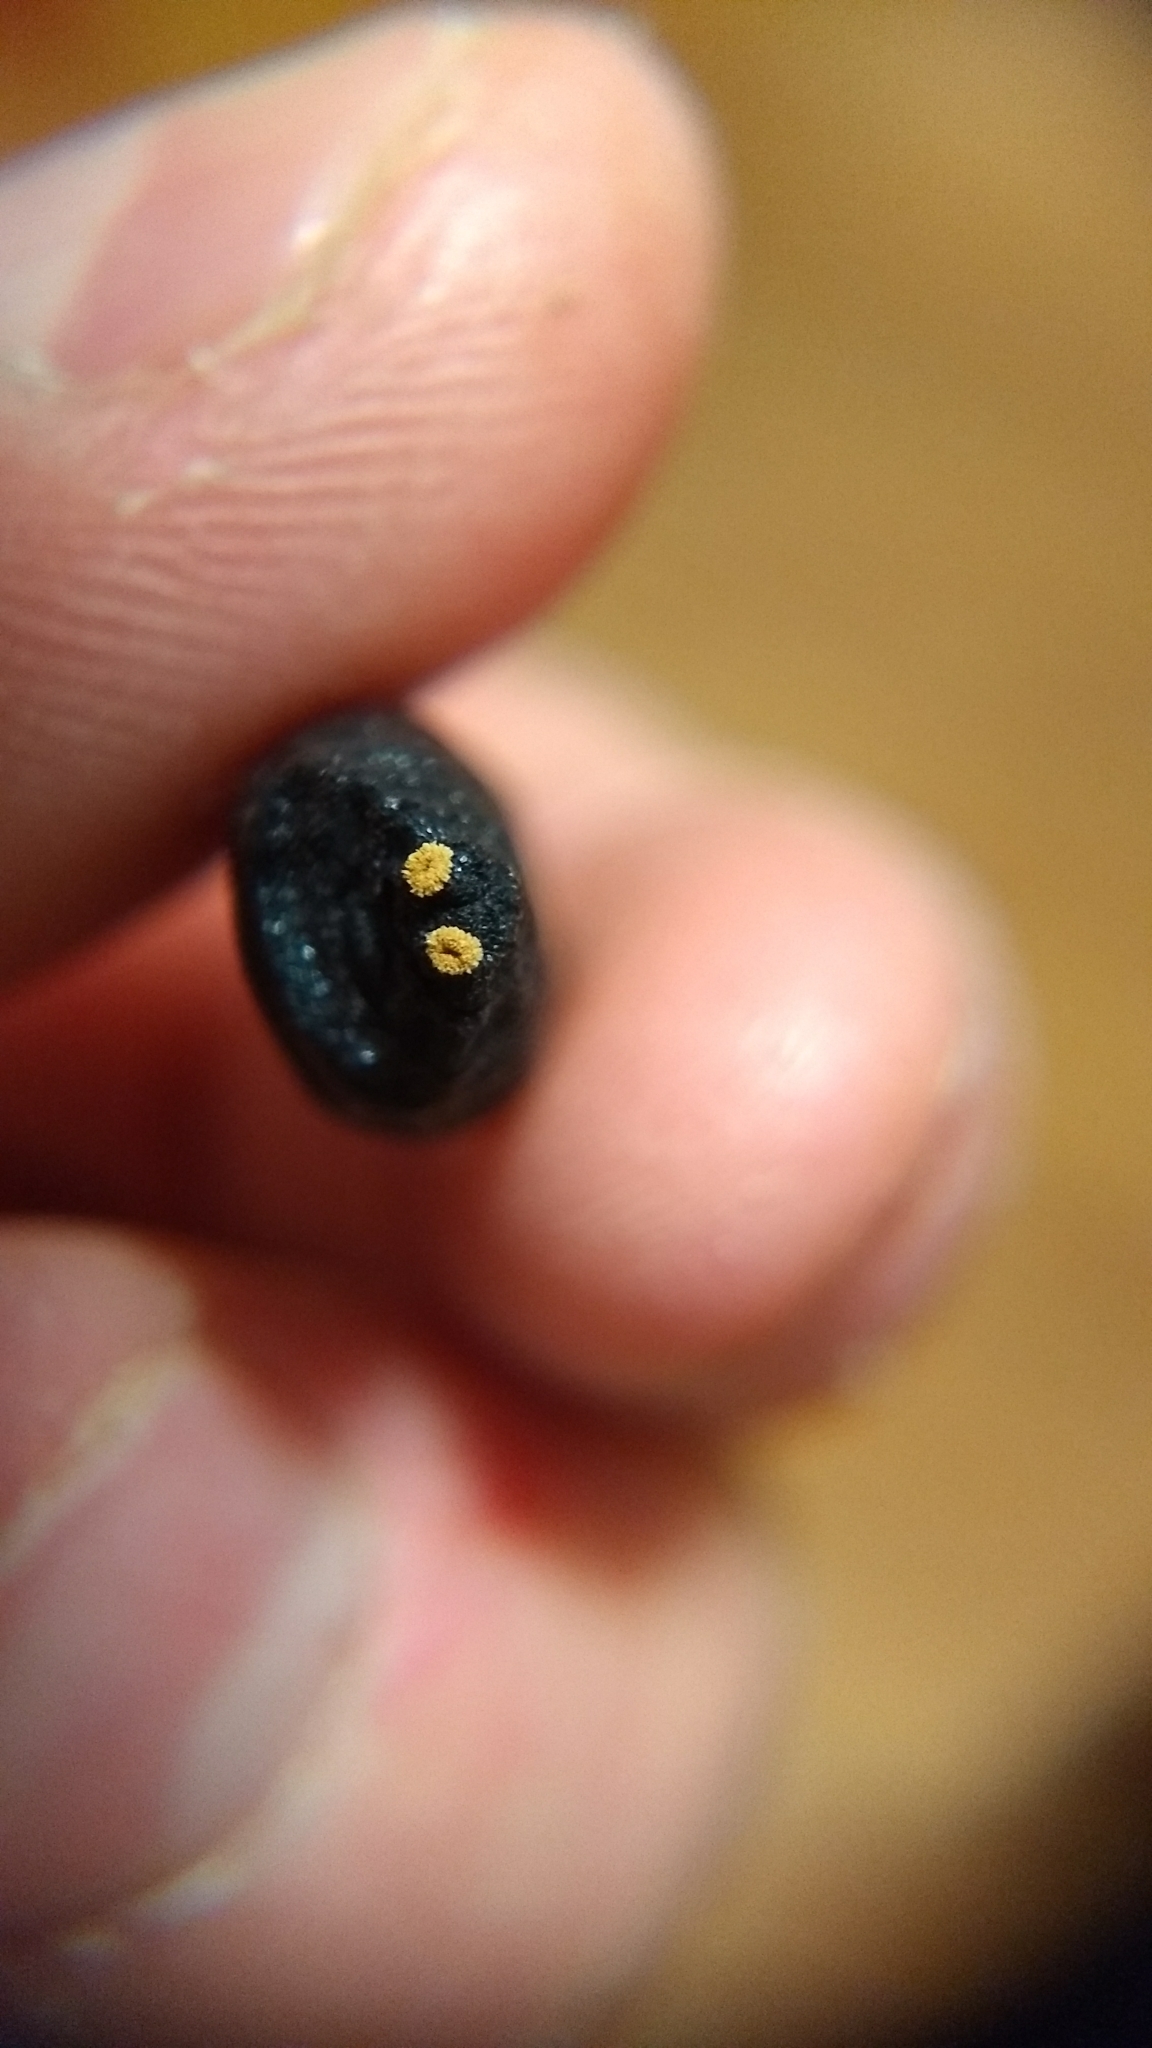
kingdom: Animalia
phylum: Arthropoda
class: Insecta
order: Diptera
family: Oestridae
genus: Cuterebra
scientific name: Cuterebra
